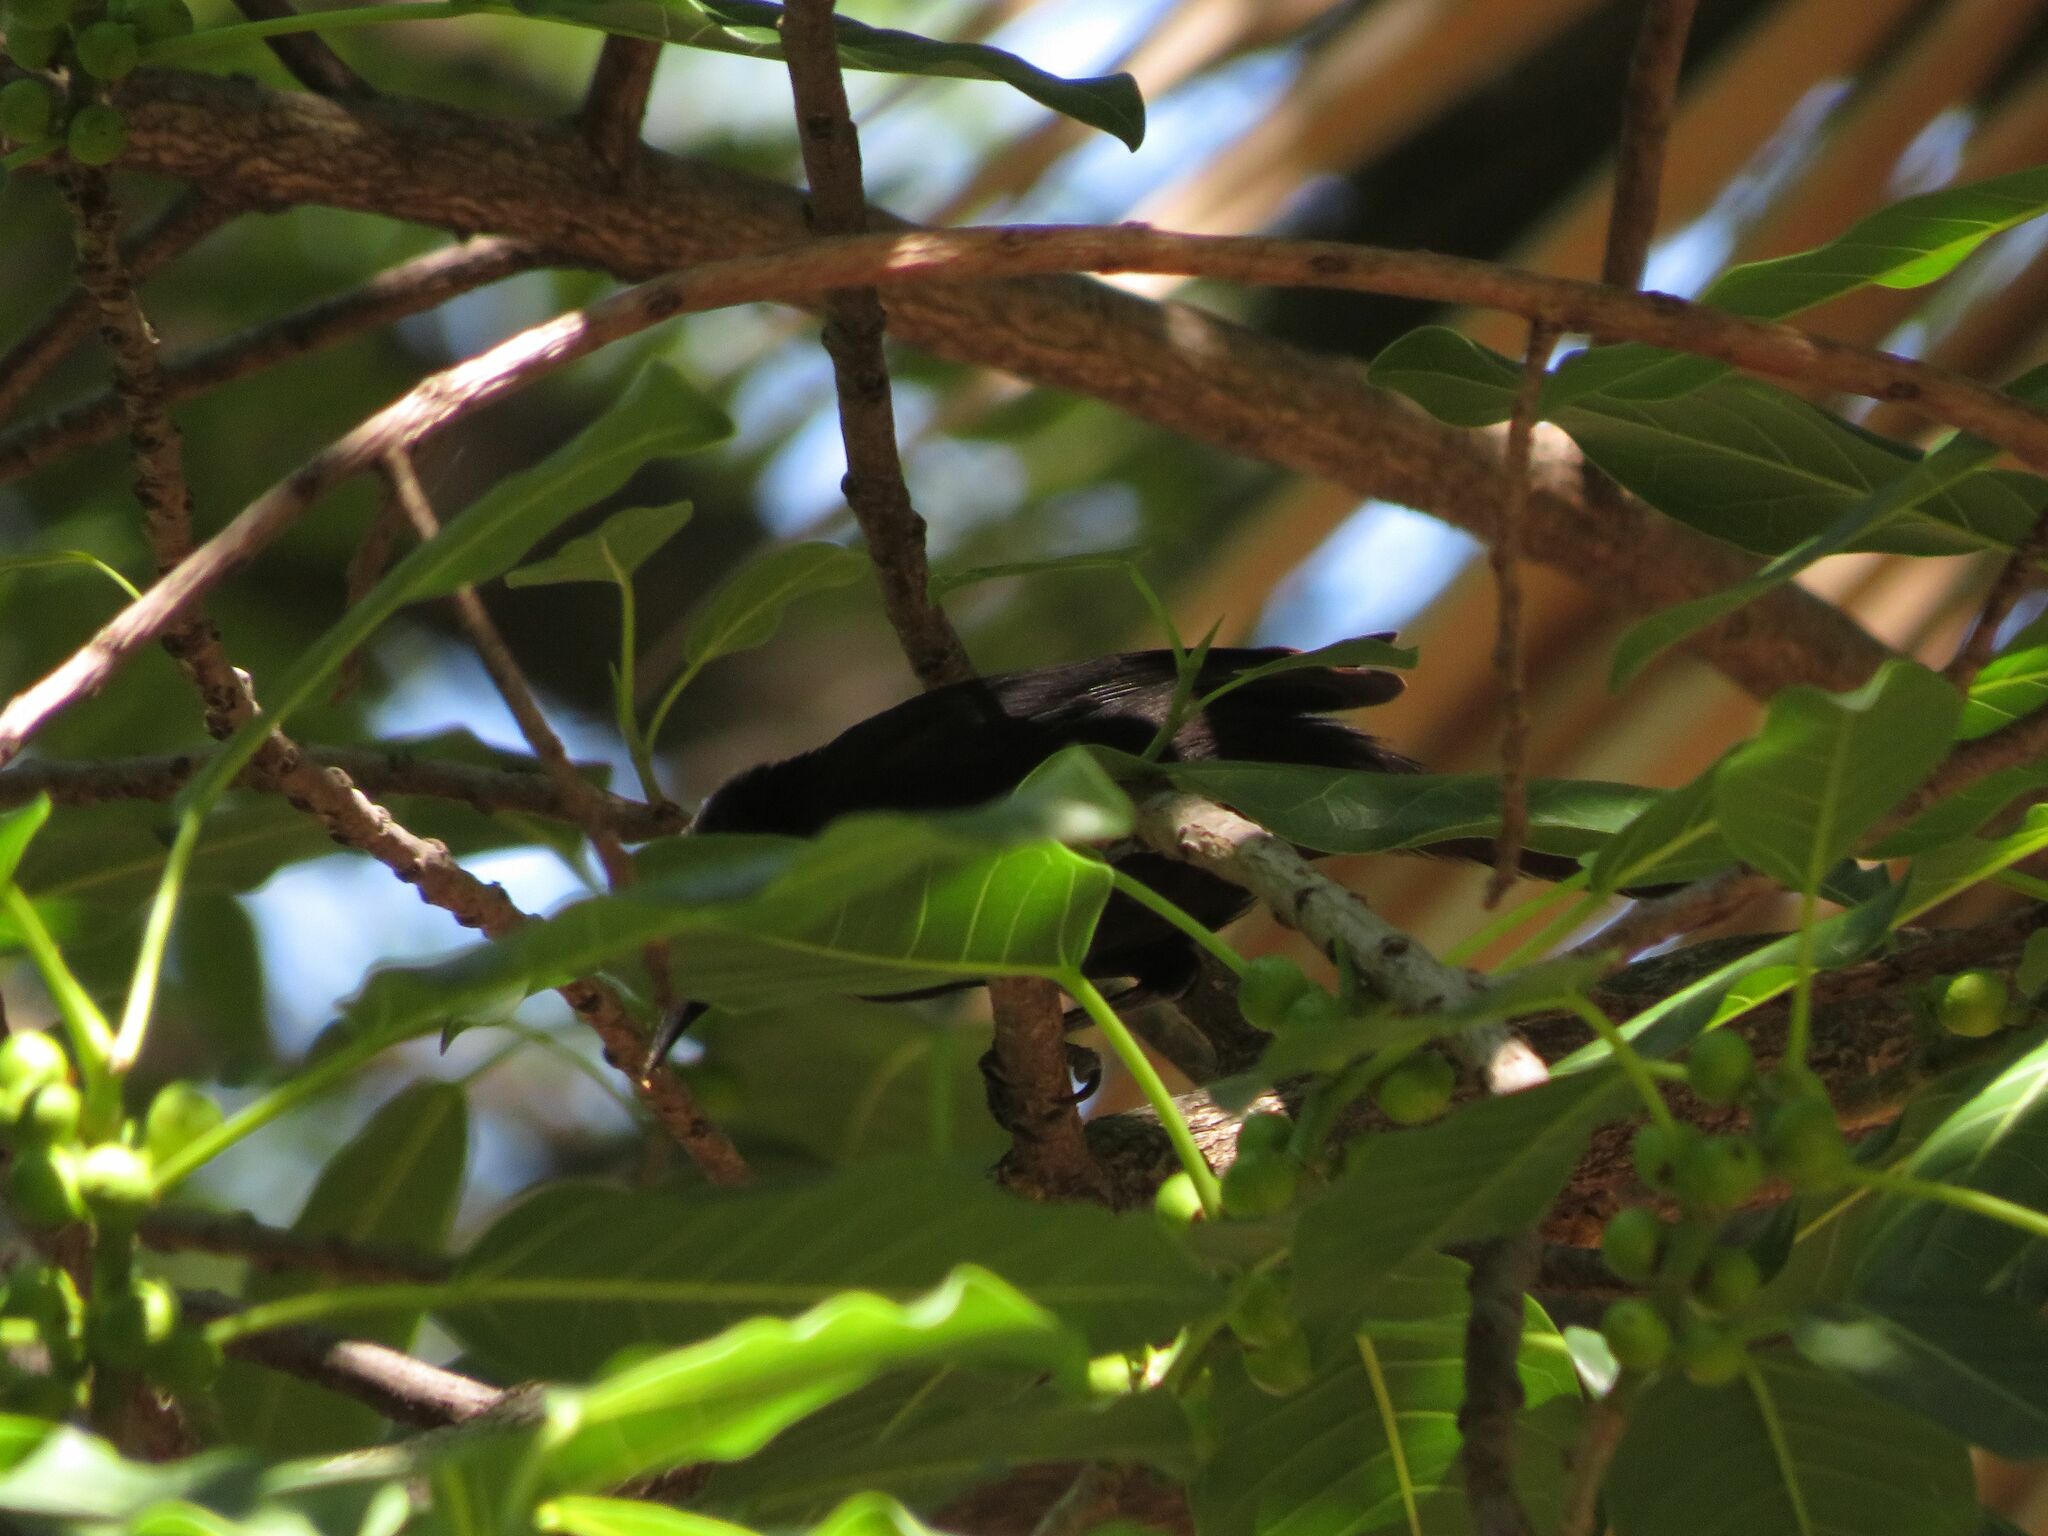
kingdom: Animalia
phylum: Chordata
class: Aves
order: Passeriformes
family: Icteridae
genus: Icterus
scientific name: Icterus cayanensis
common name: Epaulet oriole
